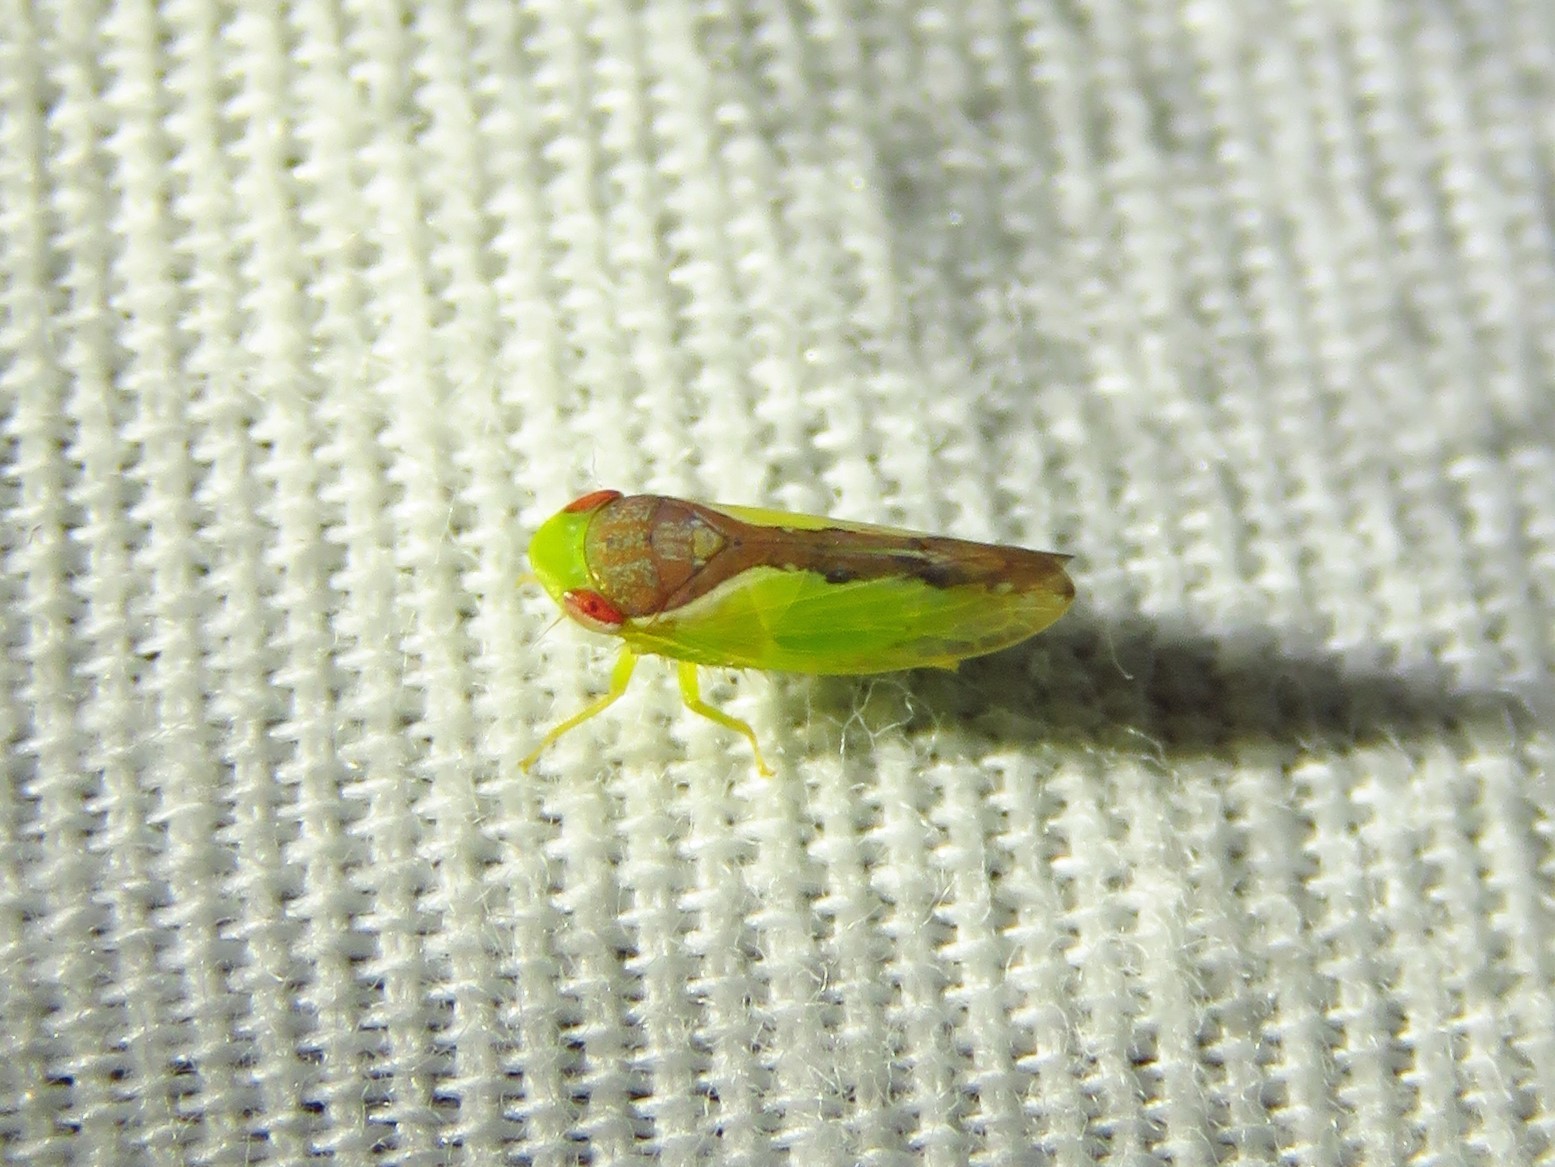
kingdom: Animalia
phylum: Arthropoda
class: Insecta
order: Hemiptera
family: Cicadellidae
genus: Omansobara ing
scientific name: Omansobara ing Omansobara palliolata
